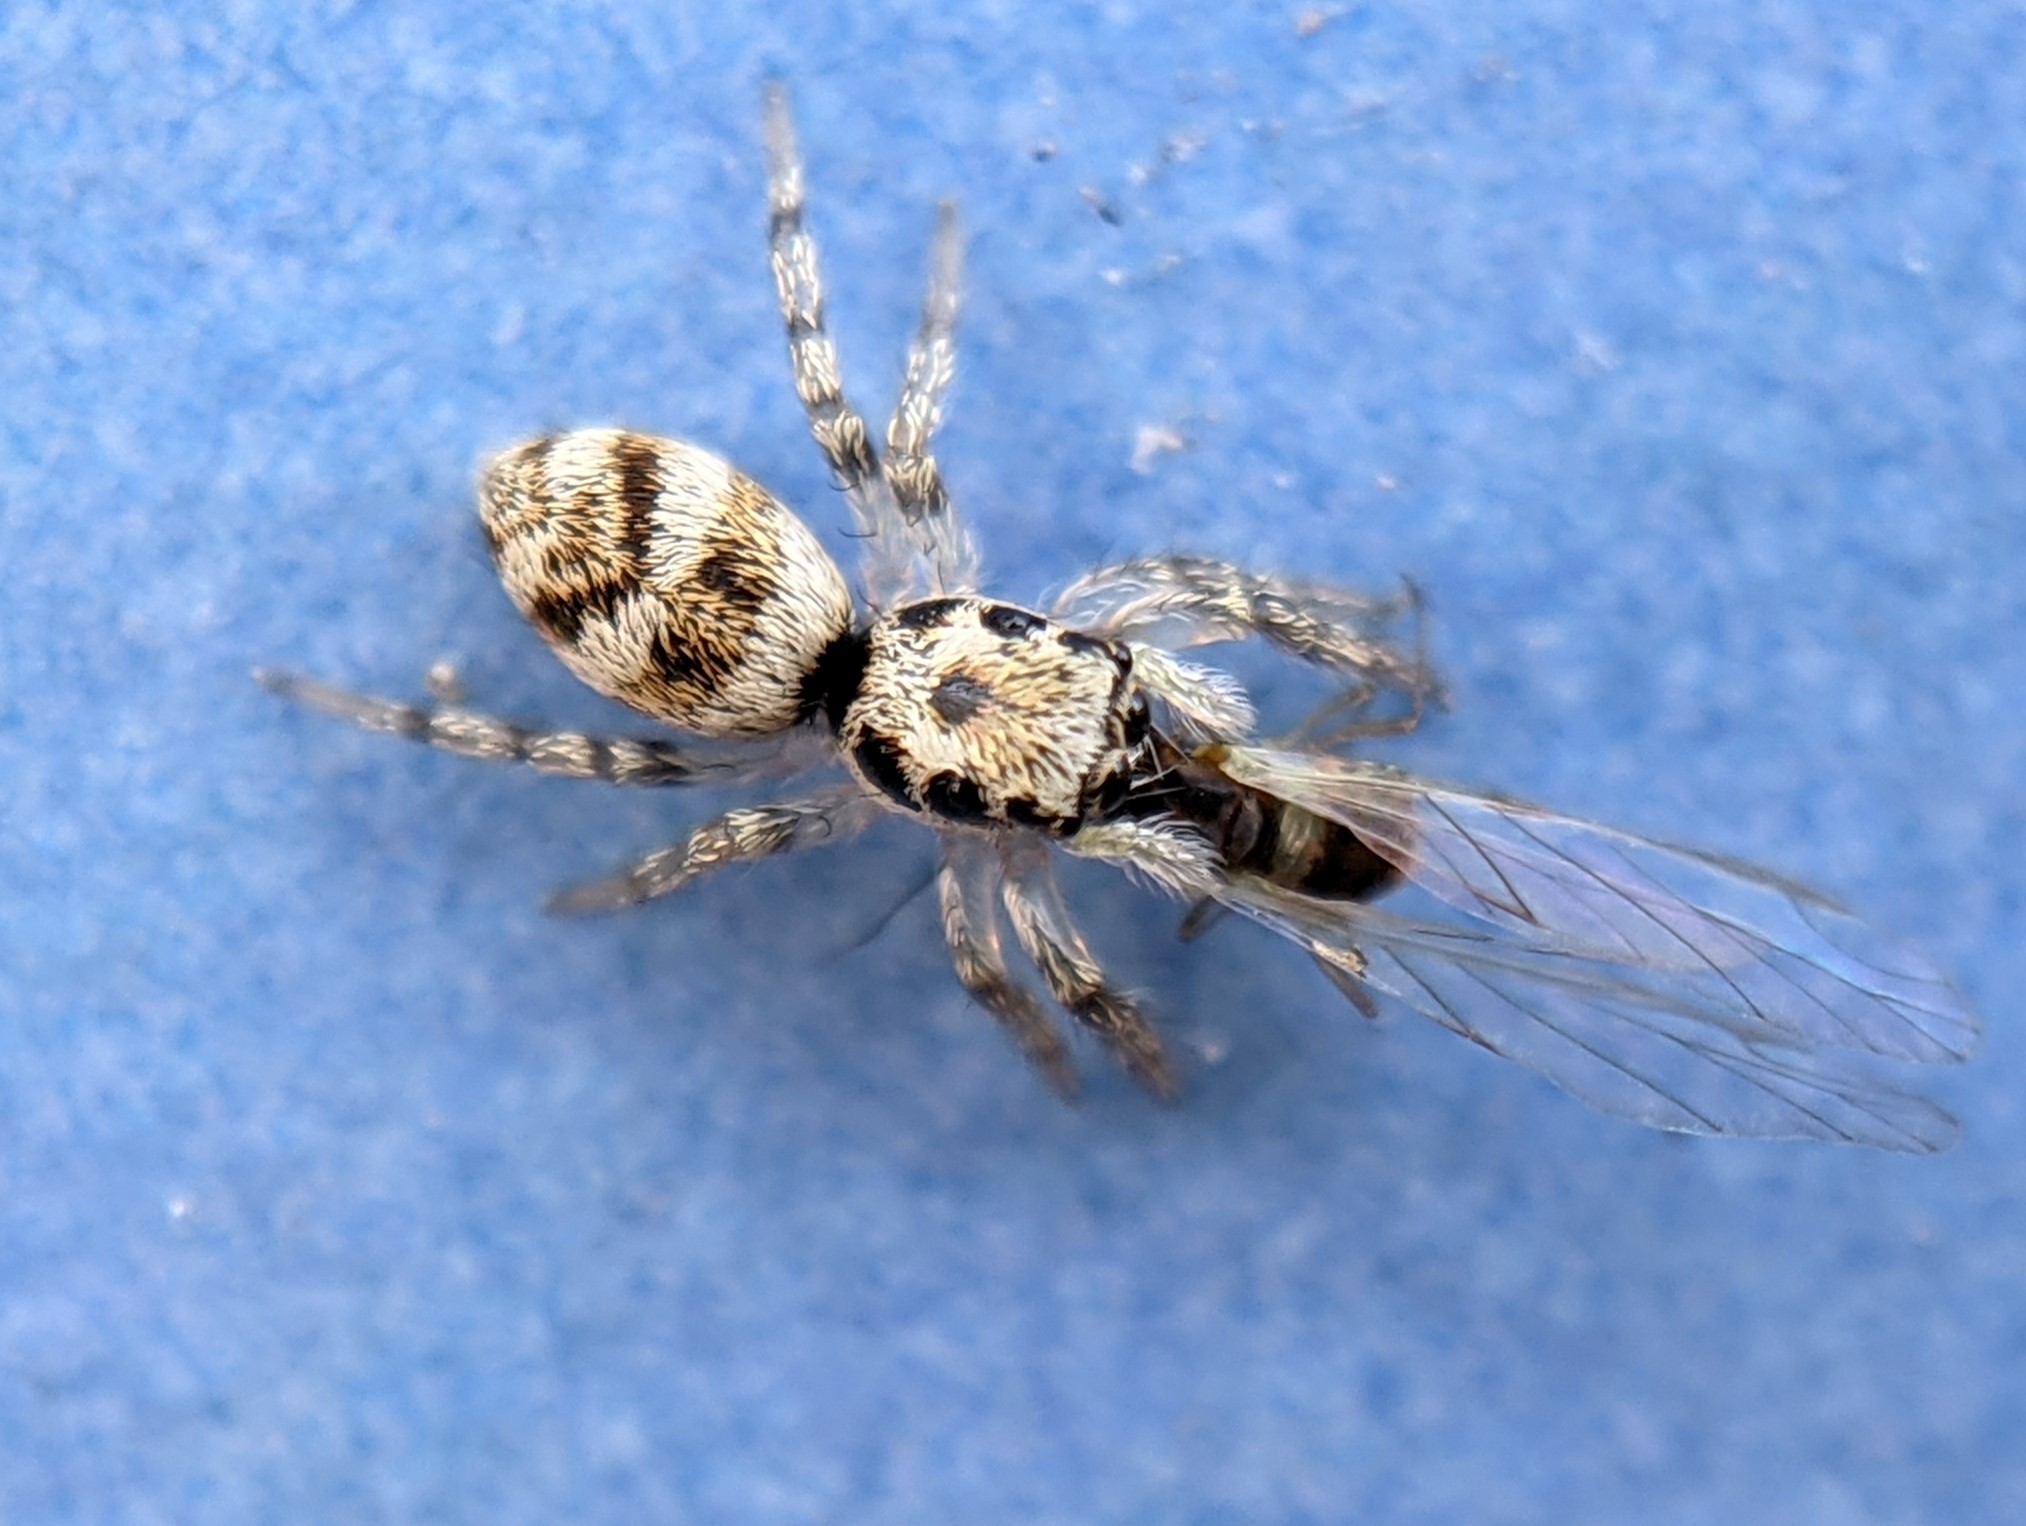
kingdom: Animalia
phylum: Arthropoda
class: Arachnida
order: Araneae
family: Salticidae
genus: Salticus
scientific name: Salticus scenicus
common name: Zebra jumper
